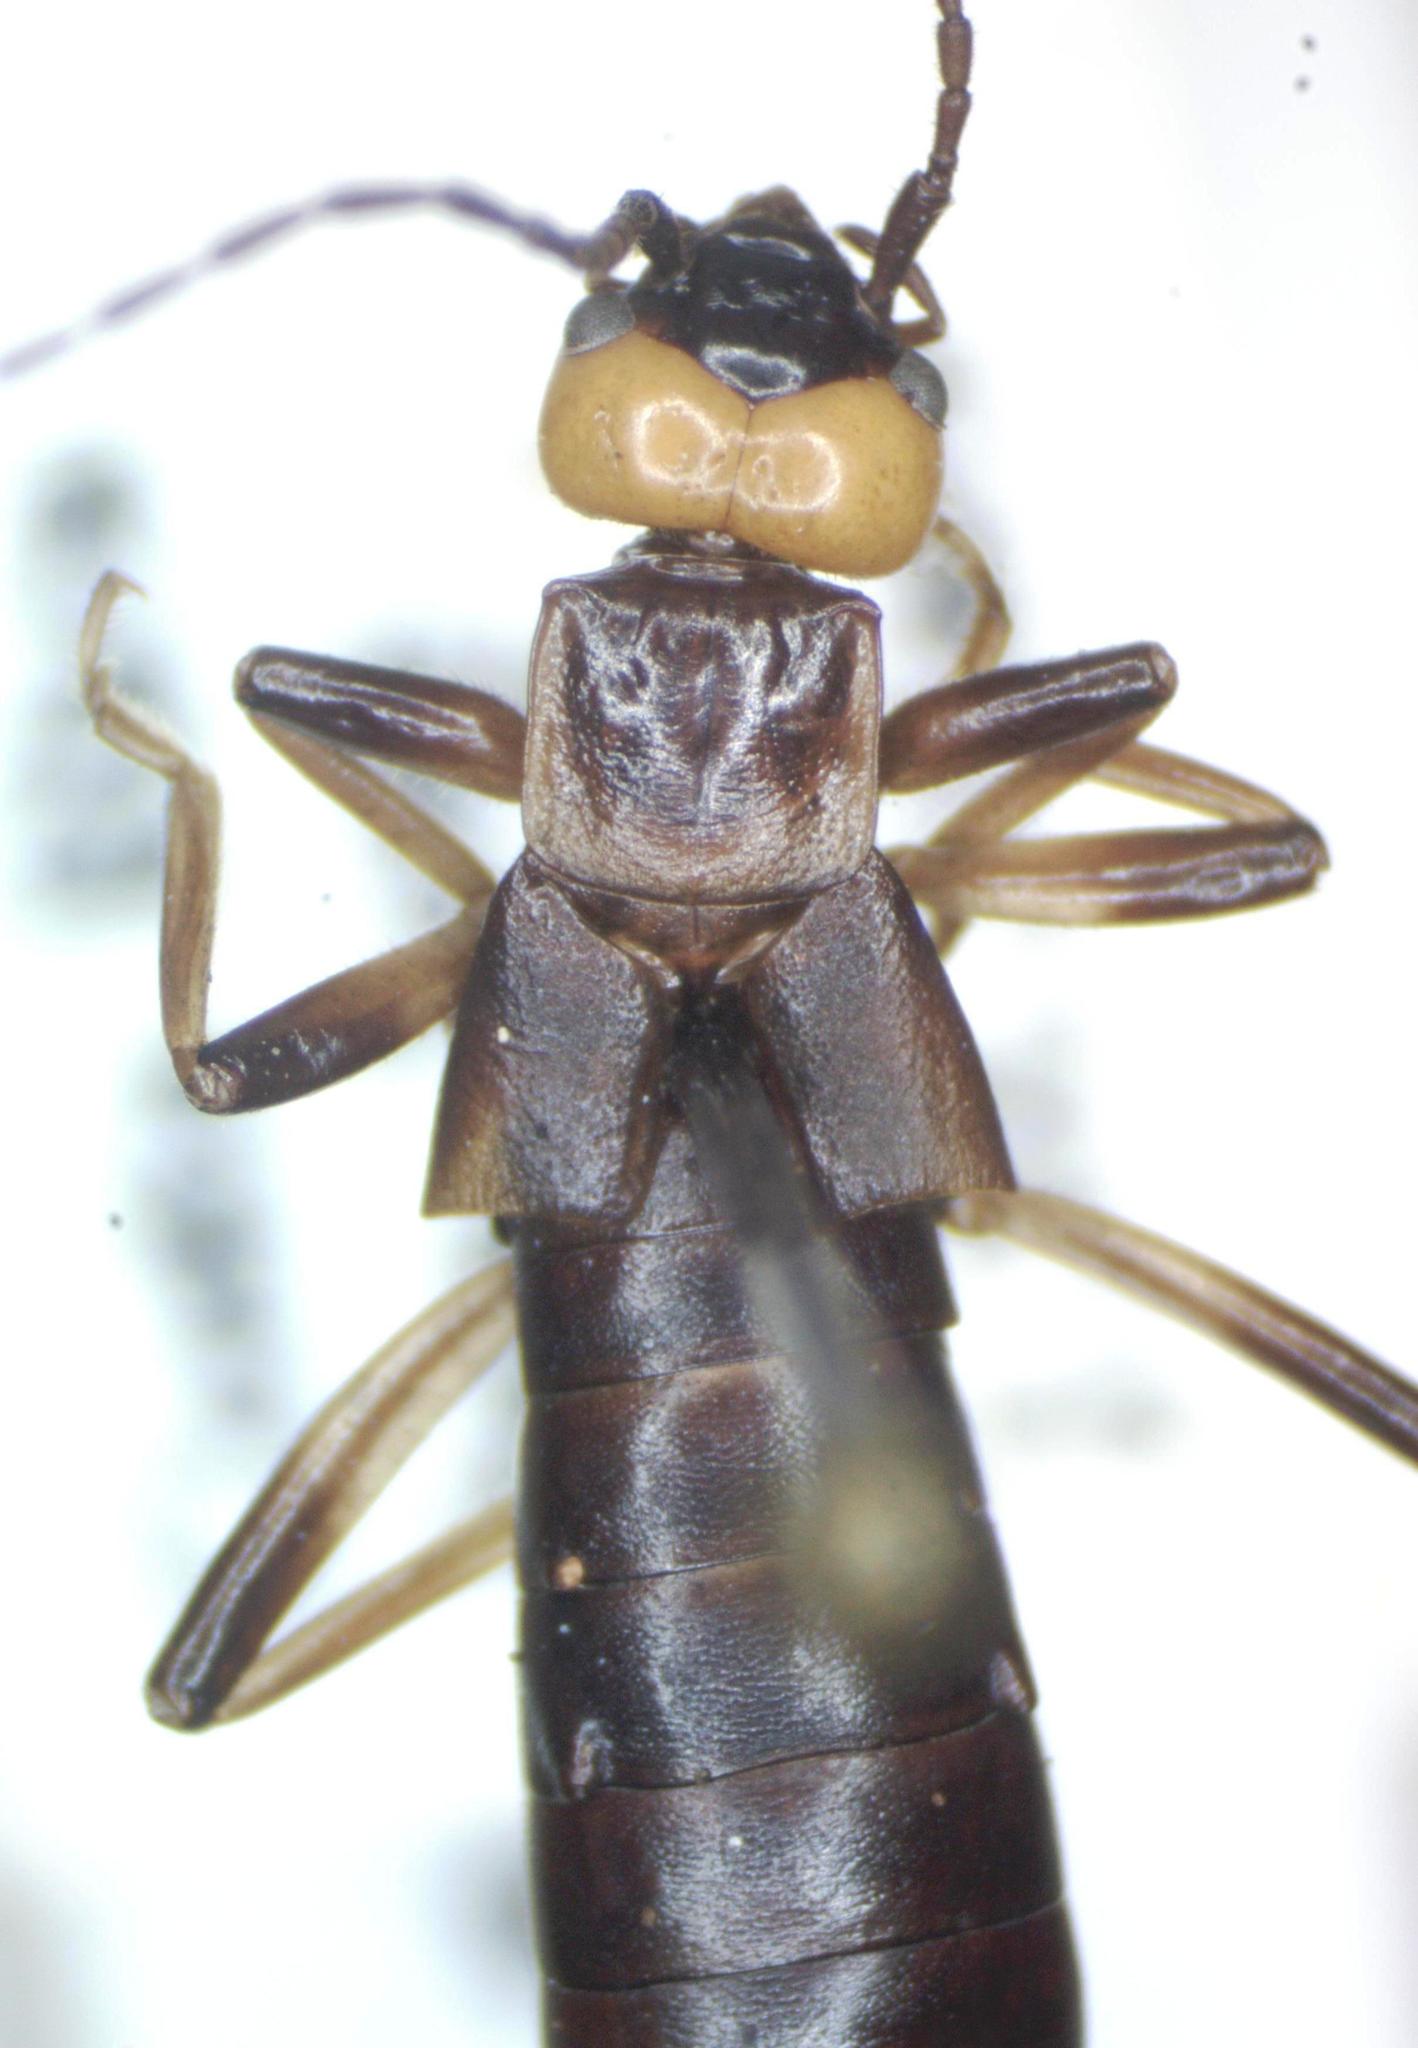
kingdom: Animalia
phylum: Arthropoda
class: Insecta
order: Dermaptera
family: Forficulidae
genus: Metresura
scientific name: Metresura flavipes
